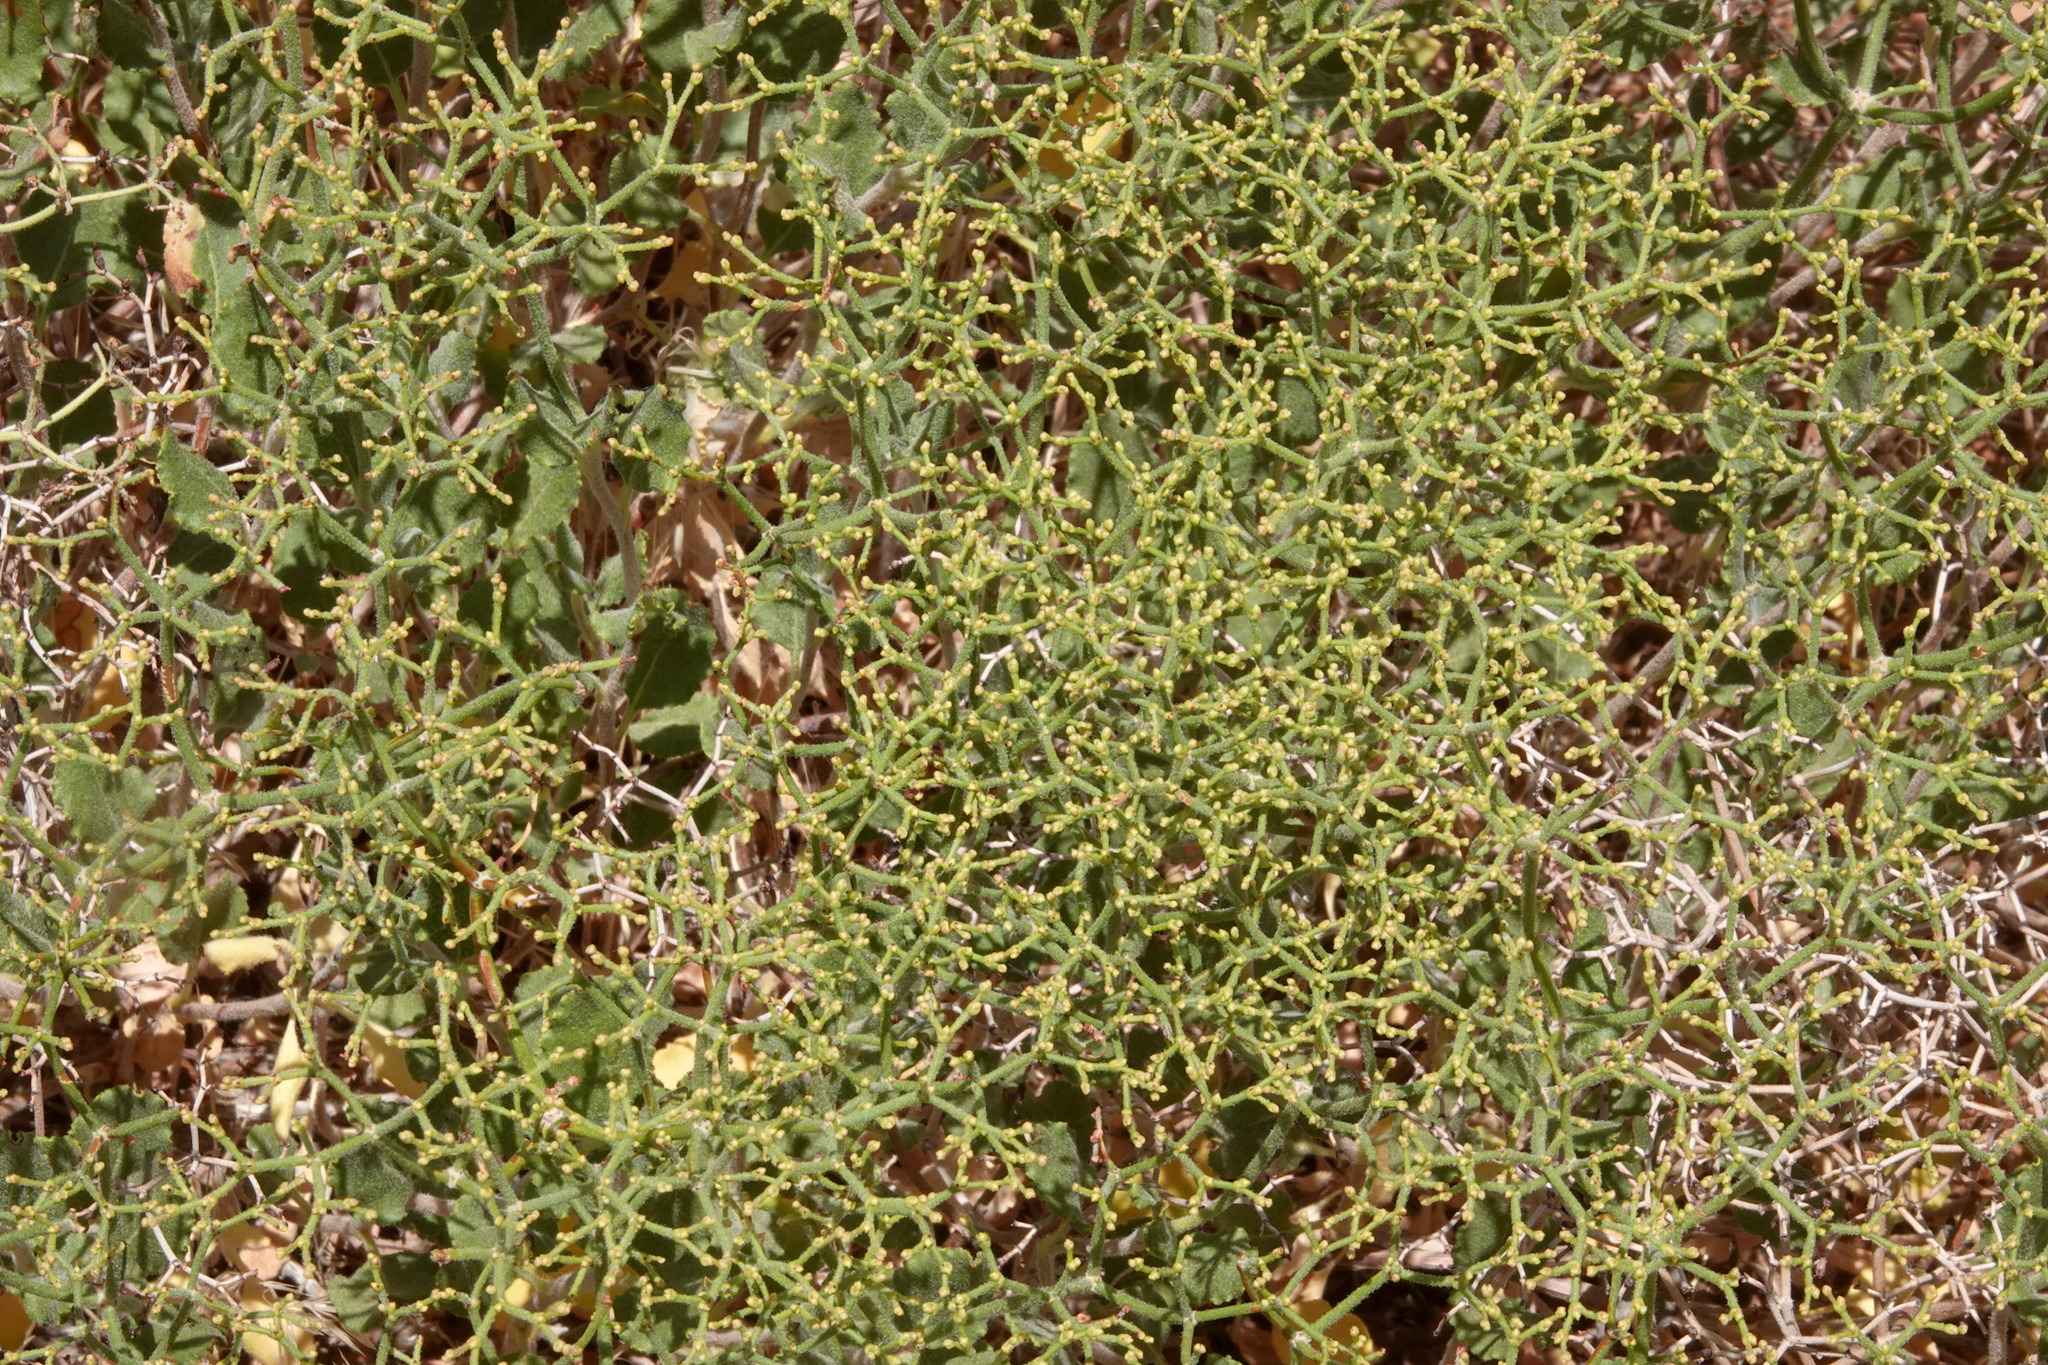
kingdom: Plantae
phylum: Tracheophyta
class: Magnoliopsida
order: Caryophyllales
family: Polygonaceae
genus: Eriogonum
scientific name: Eriogonum heermannii
